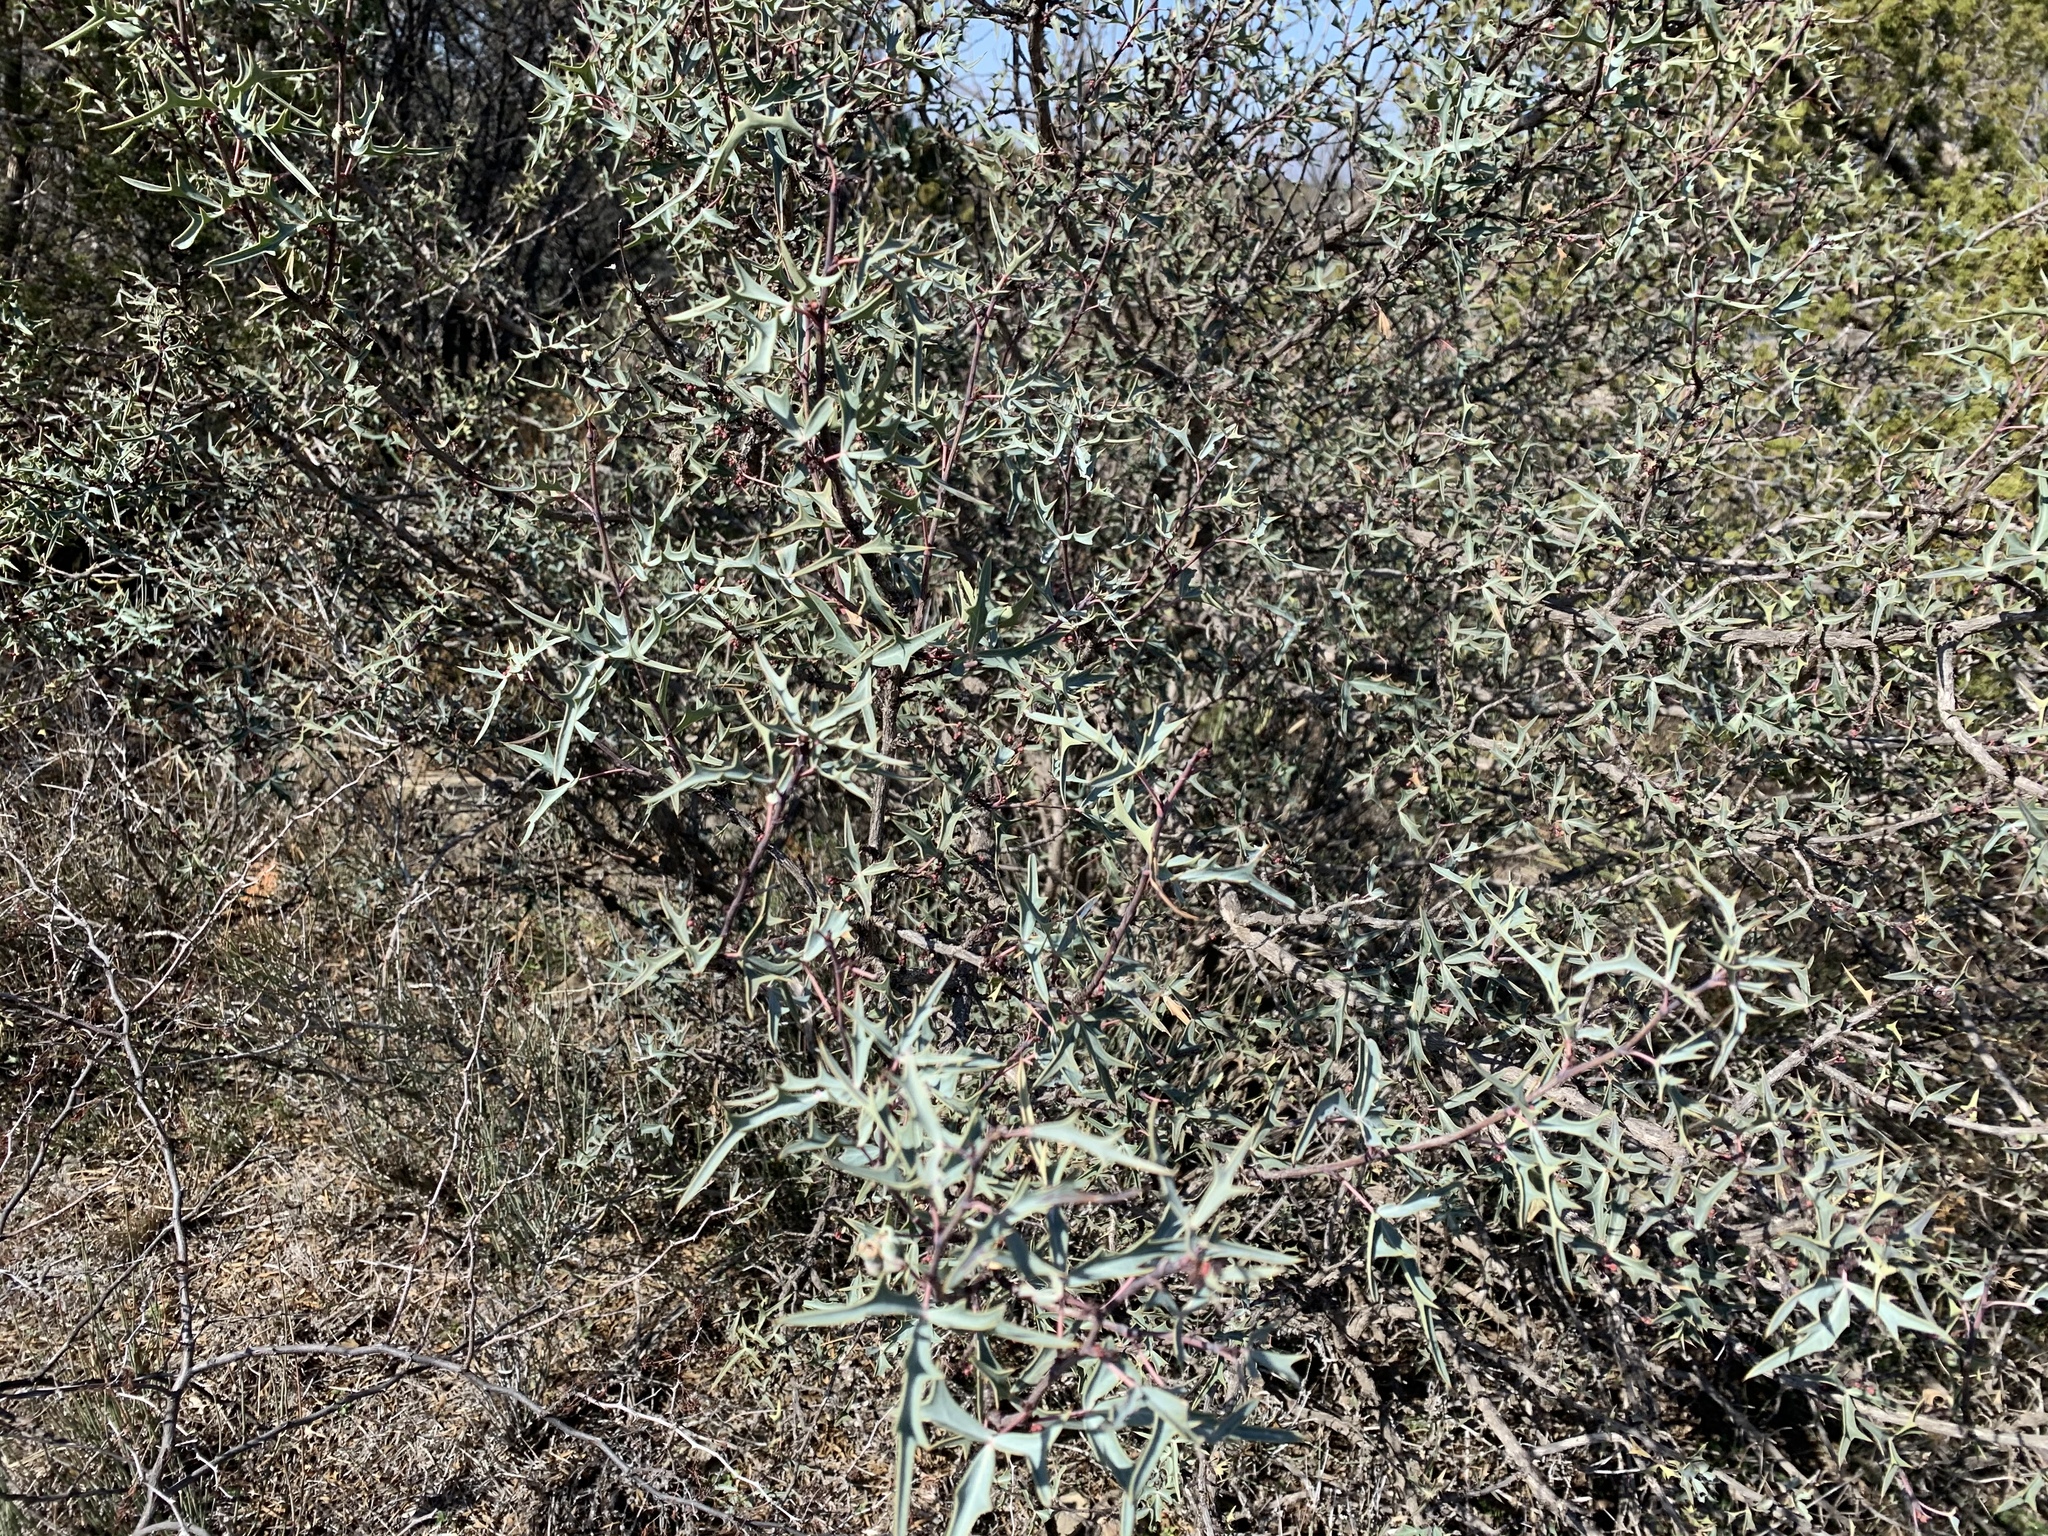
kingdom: Plantae
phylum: Tracheophyta
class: Magnoliopsida
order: Ranunculales
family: Berberidaceae
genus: Alloberberis
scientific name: Alloberberis trifoliolata
